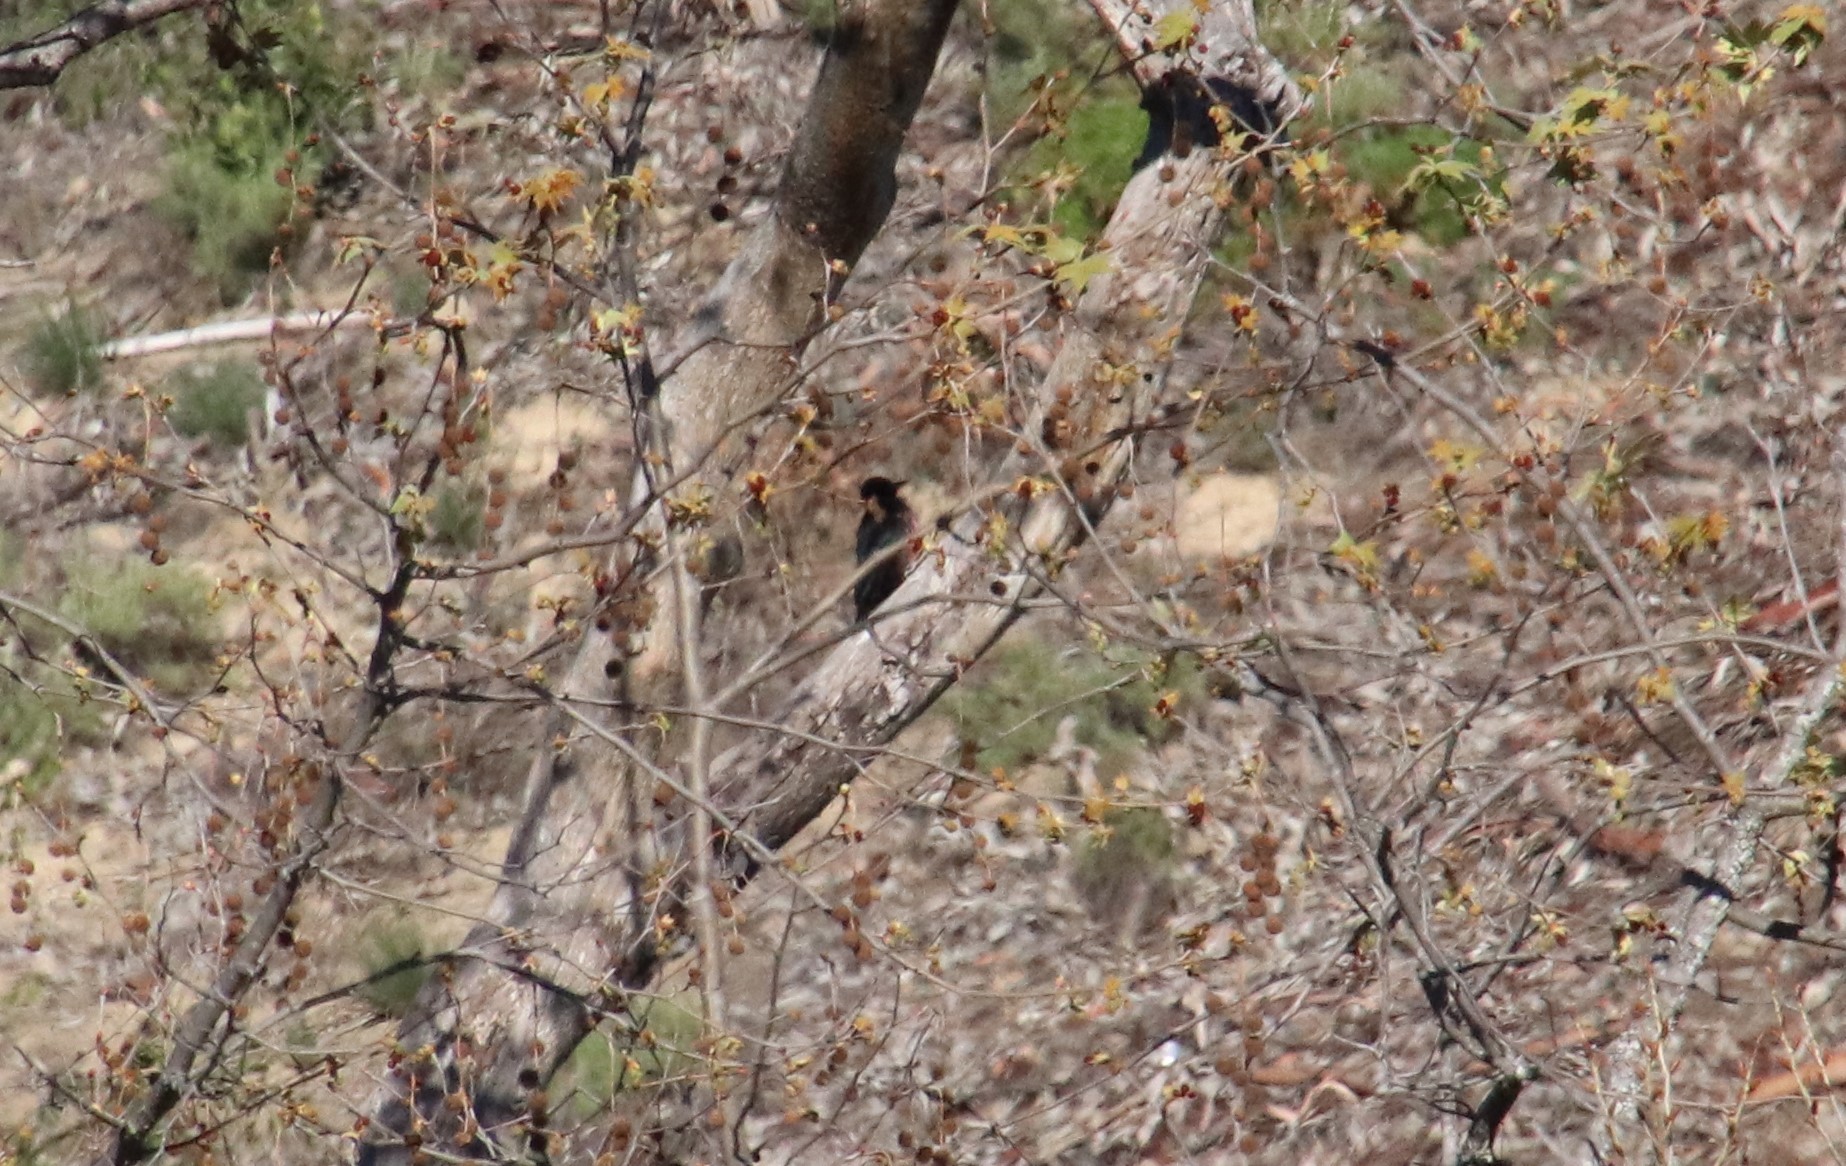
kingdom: Animalia
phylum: Chordata
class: Aves
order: Piciformes
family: Picidae
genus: Melanerpes
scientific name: Melanerpes lewis
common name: Lewis's woodpecker
